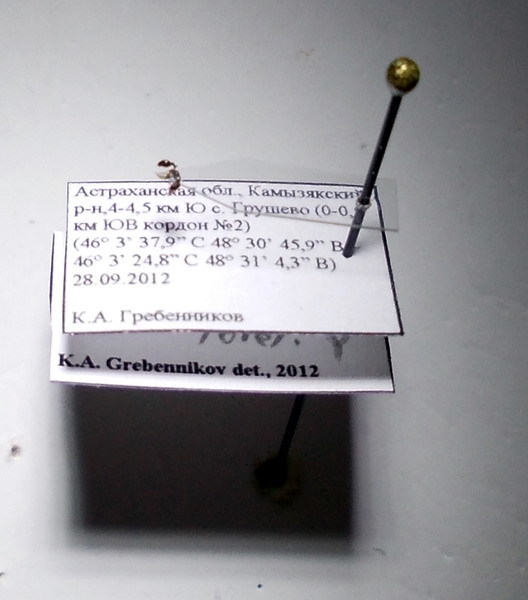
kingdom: Animalia
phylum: Arthropoda
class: Insecta
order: Hymenoptera
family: Formicidae
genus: Cardiocondyla
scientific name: Cardiocondyla stambuloffii
